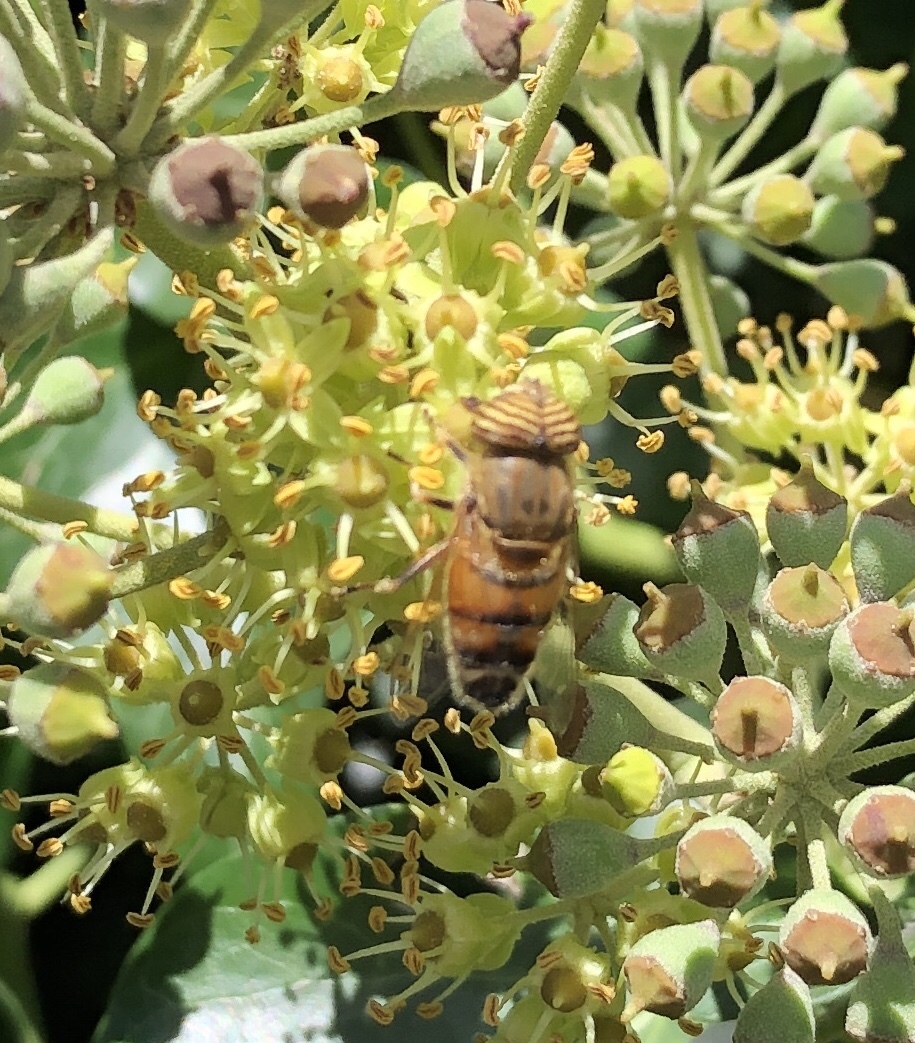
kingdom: Animalia
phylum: Arthropoda
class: Insecta
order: Diptera
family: Syrphidae
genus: Eristalinus
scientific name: Eristalinus taeniops
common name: Syrphid fly
